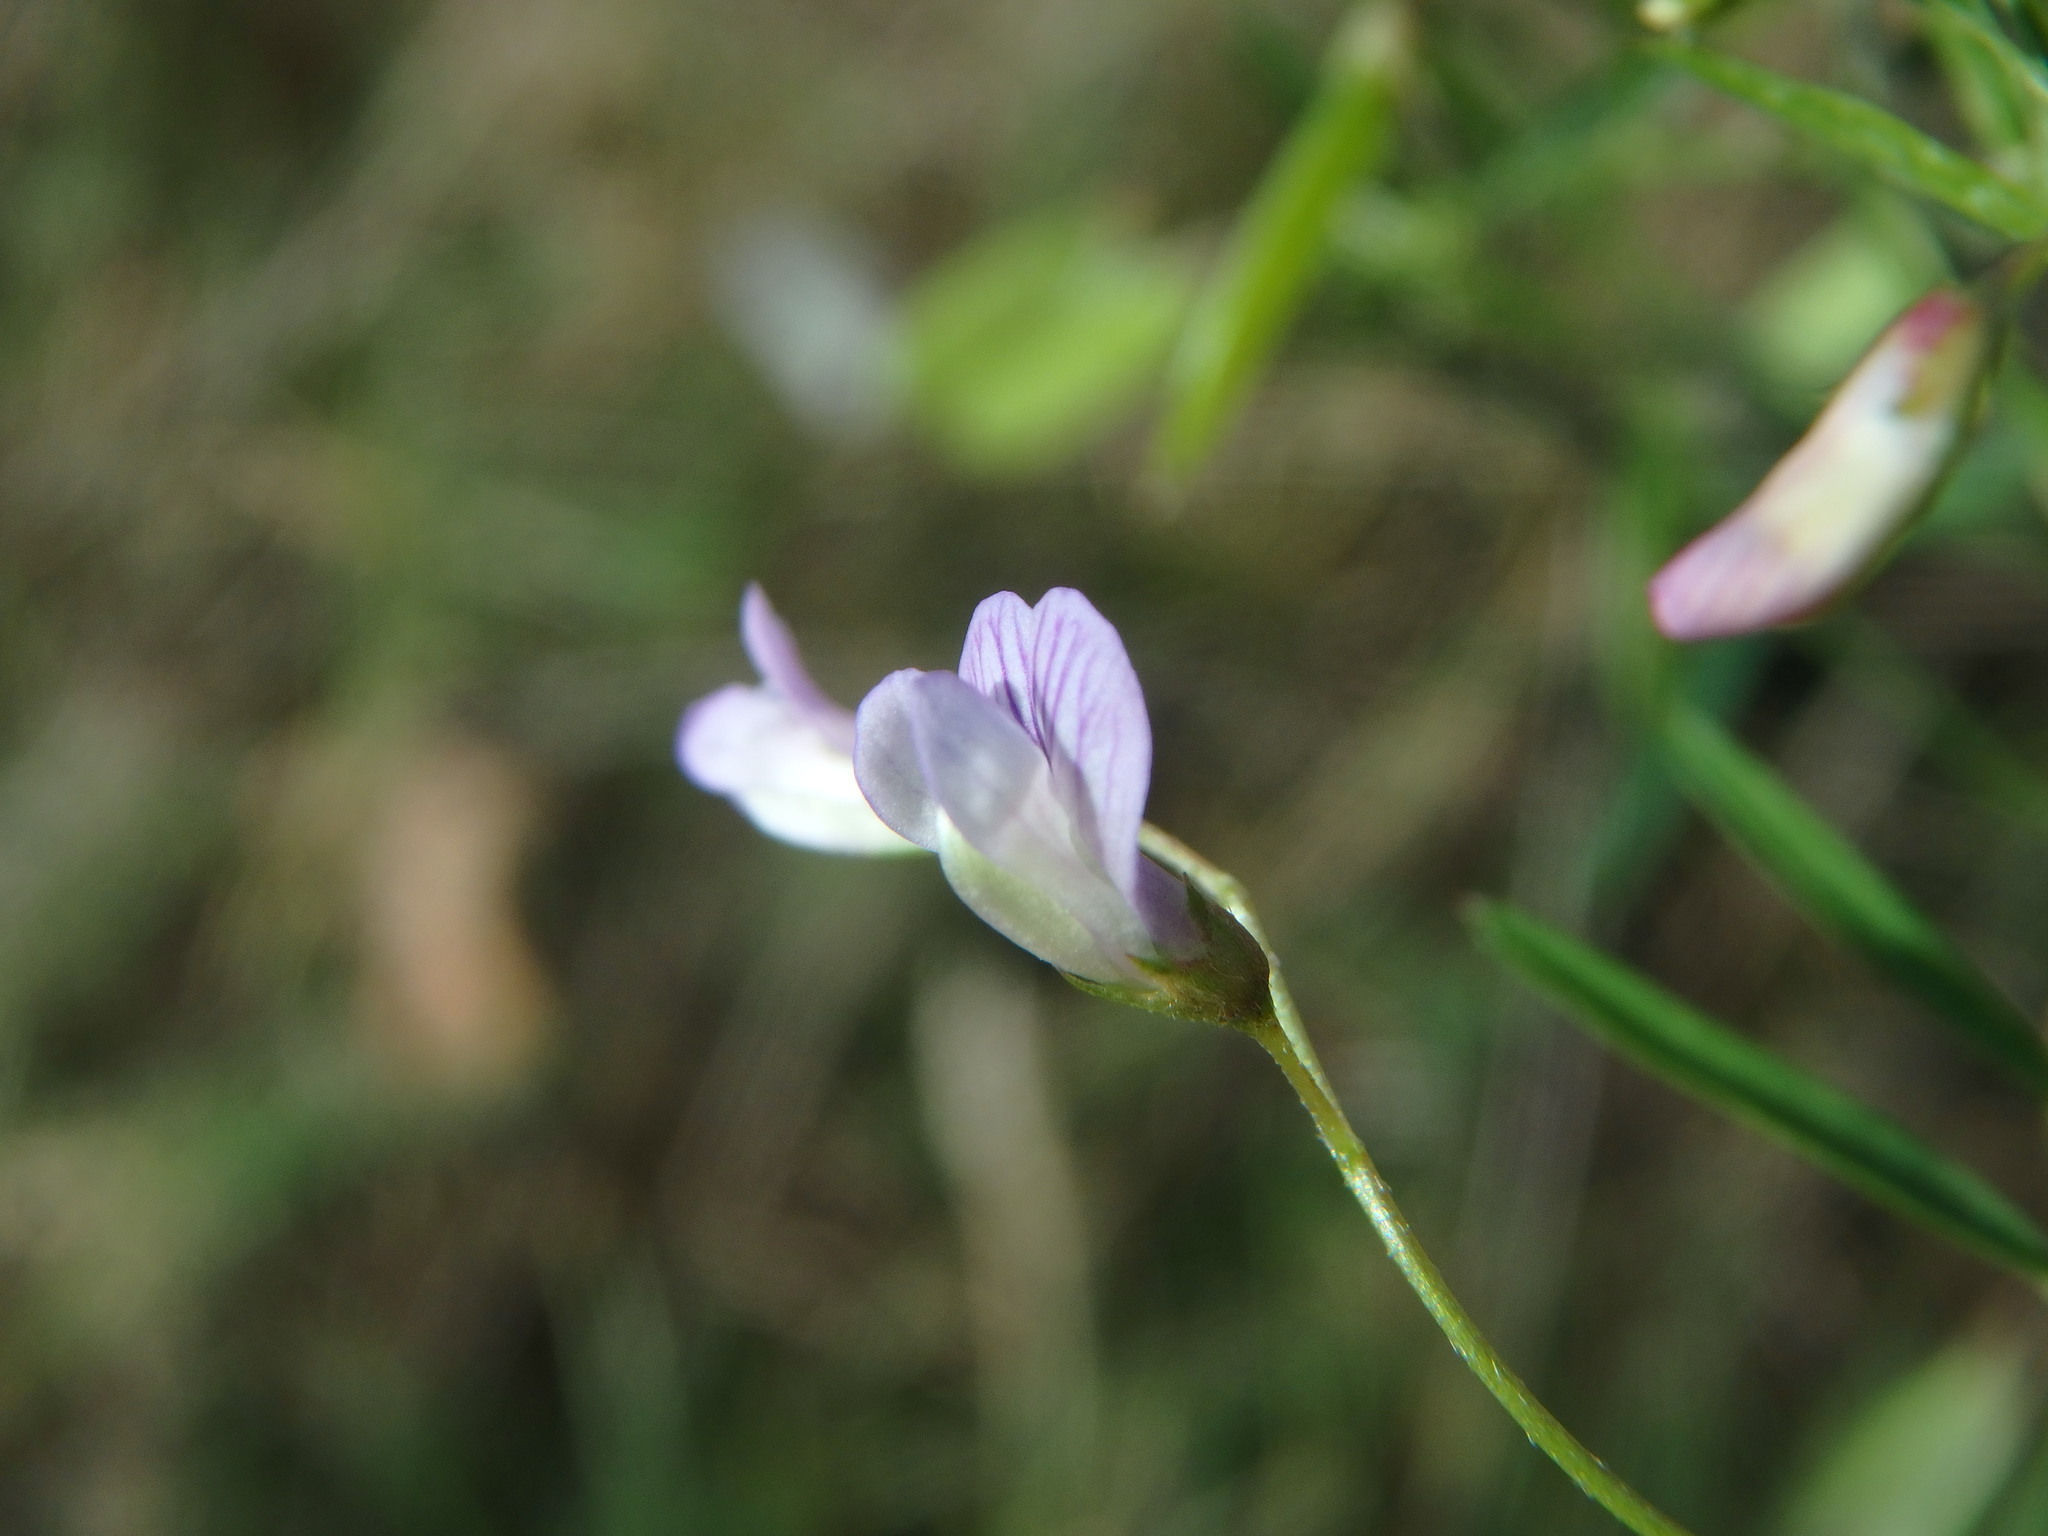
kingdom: Plantae
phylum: Tracheophyta
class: Magnoliopsida
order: Fabales
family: Fabaceae
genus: Vicia
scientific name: Vicia tetrasperma
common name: Smooth tare
